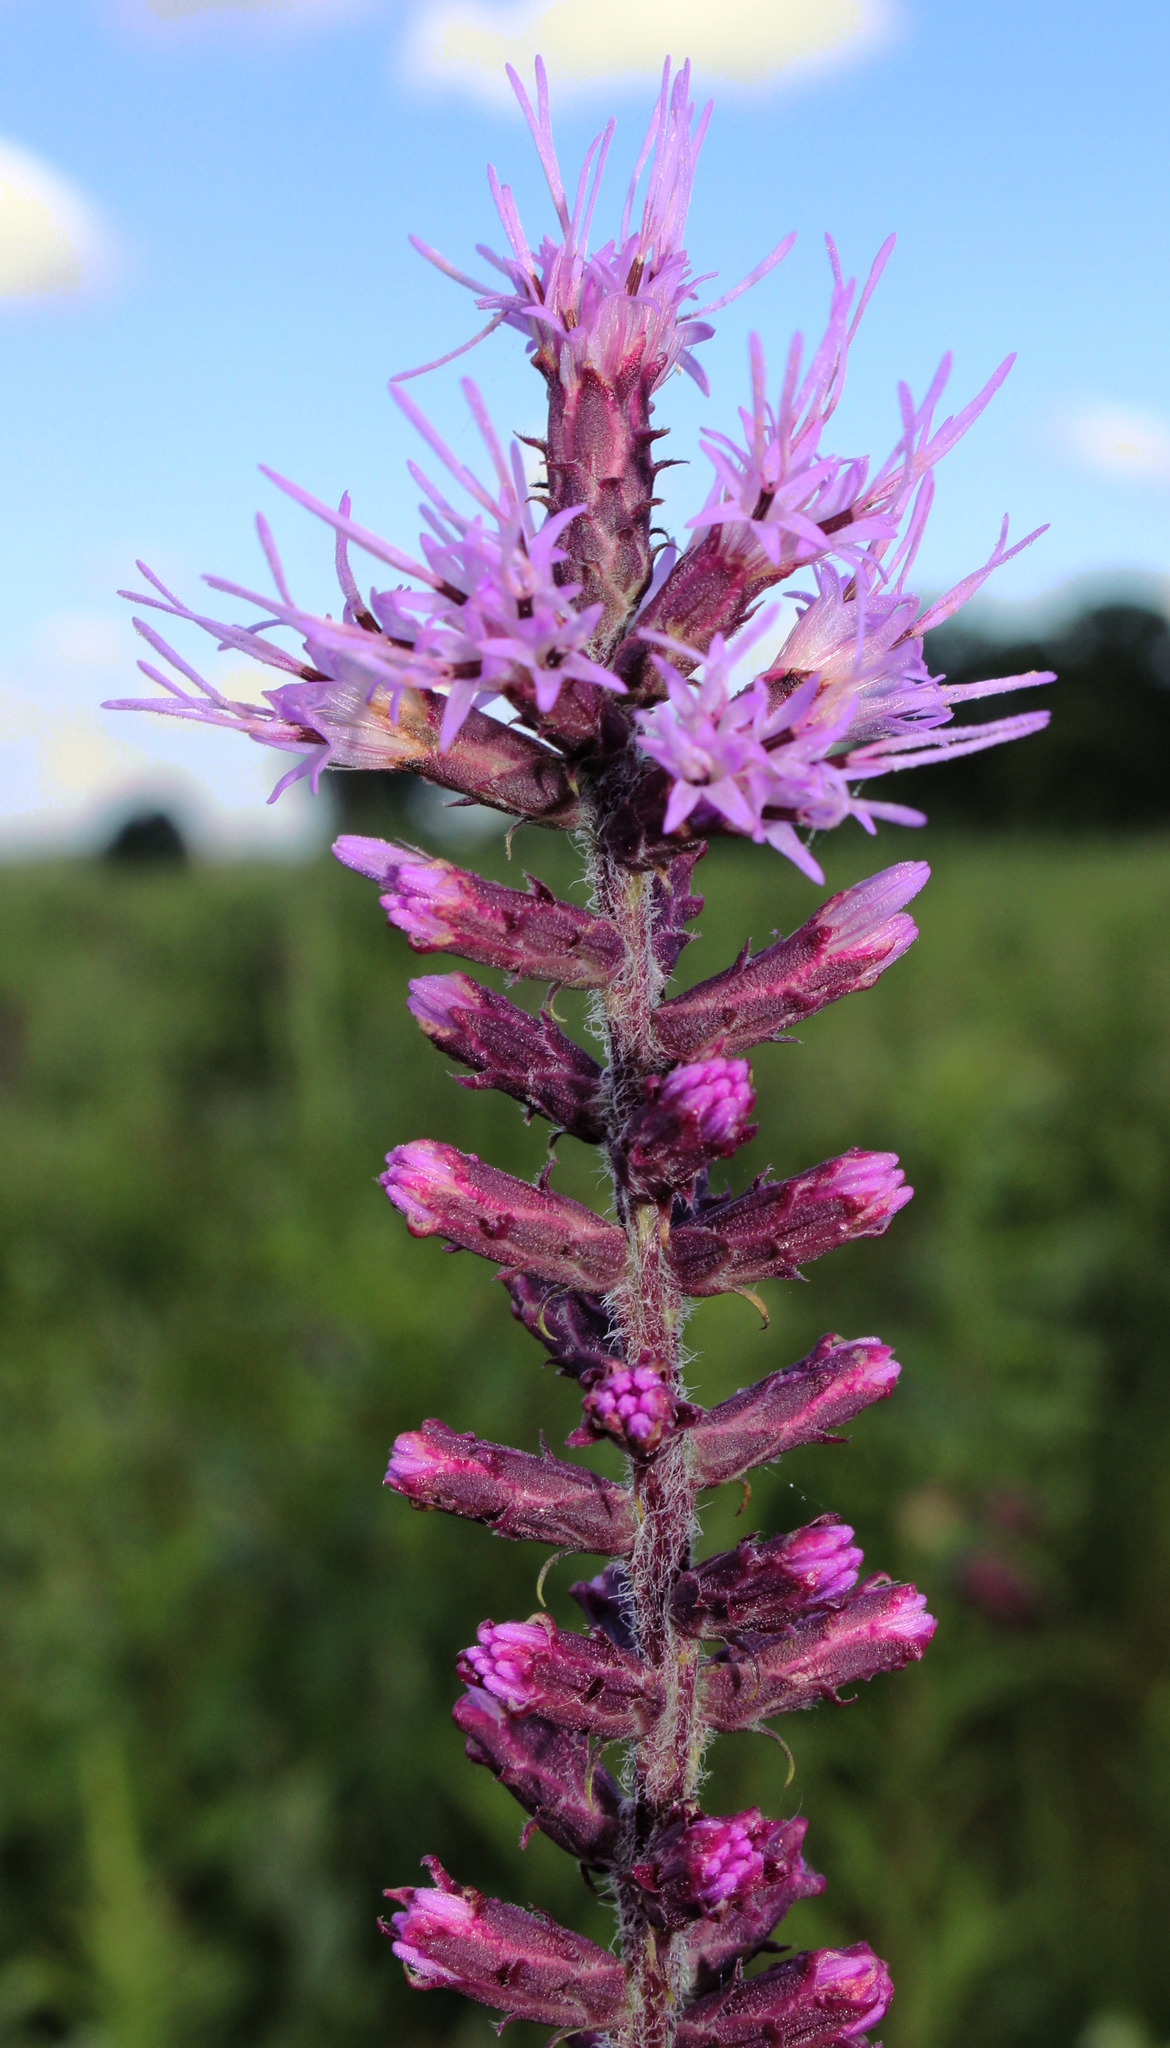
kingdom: Plantae
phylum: Tracheophyta
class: Magnoliopsida
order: Asterales
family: Asteraceae
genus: Liatris
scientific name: Liatris pycnostachya
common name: Cattail gayfeather
